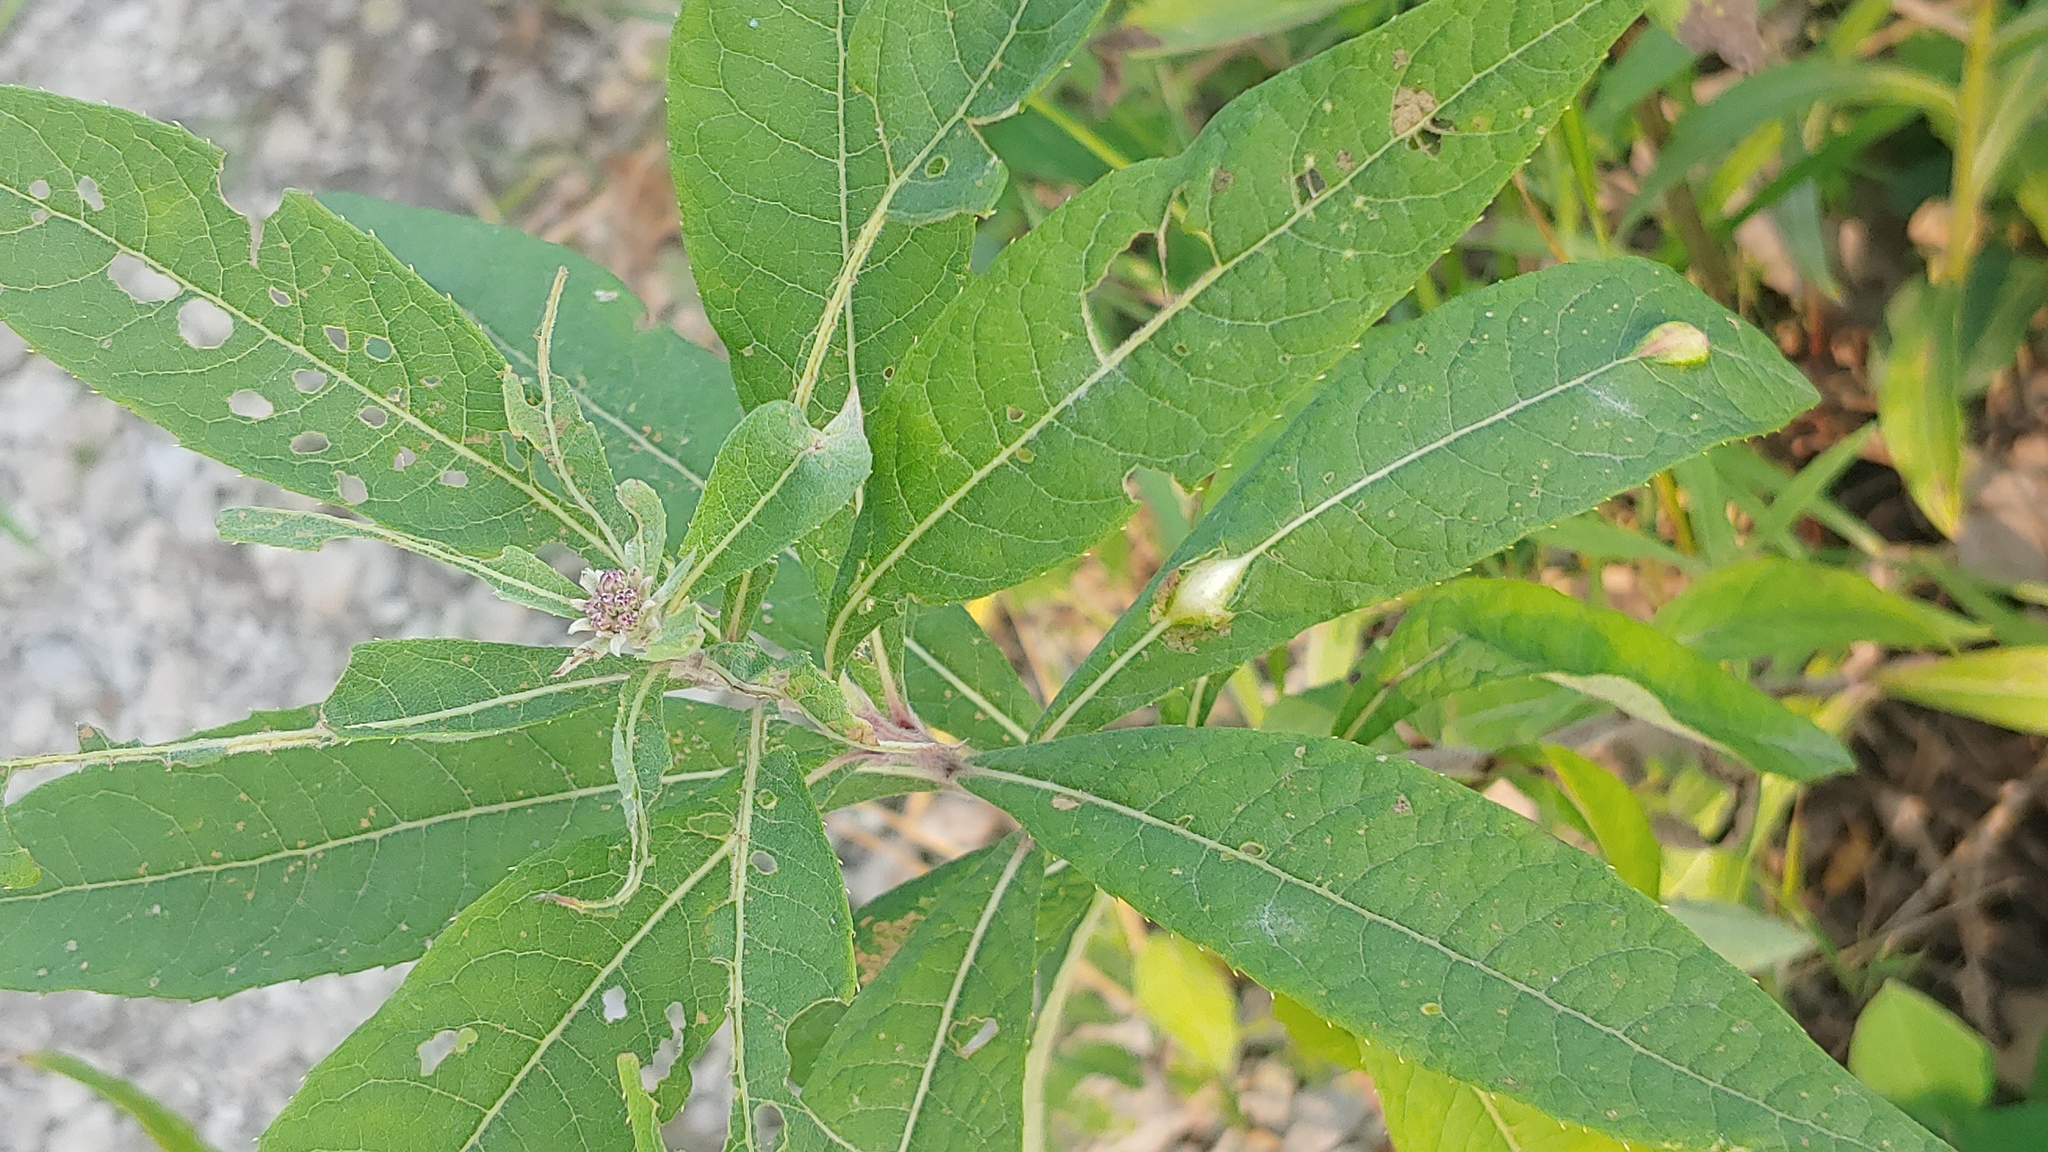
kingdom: Animalia
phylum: Arthropoda
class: Insecta
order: Diptera
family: Cecidomyiidae
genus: Neolasioptera
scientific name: Neolasioptera vernoniae
